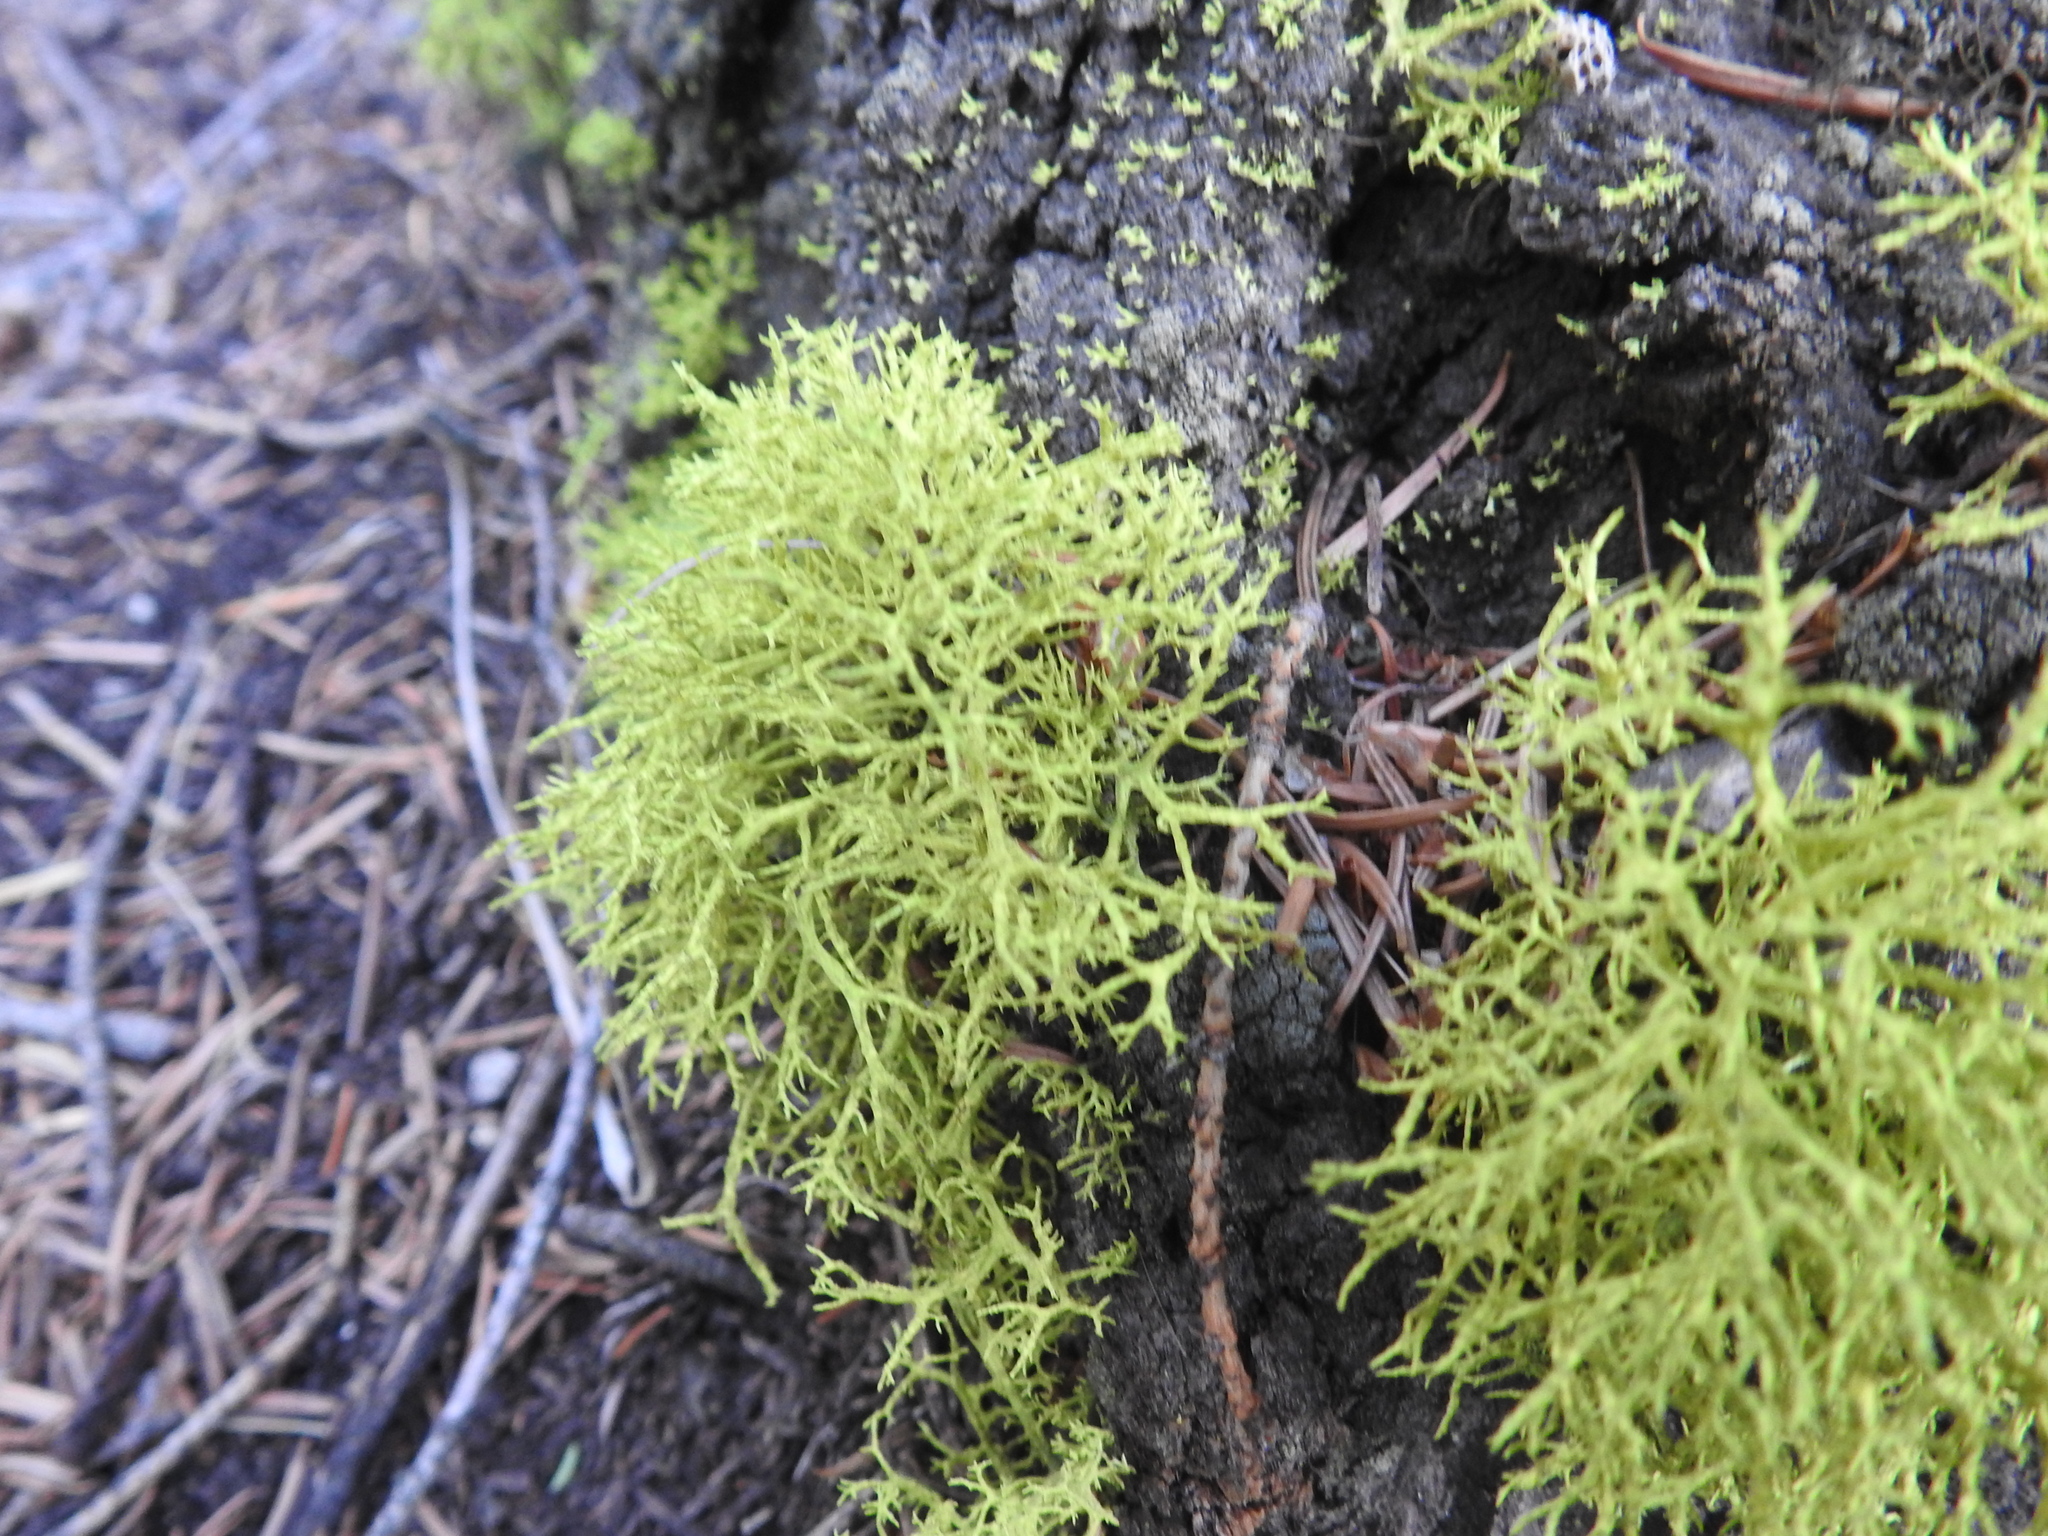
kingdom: Fungi
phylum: Ascomycota
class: Lecanoromycetes
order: Lecanorales
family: Parmeliaceae
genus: Letharia
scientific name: Letharia vulpina
